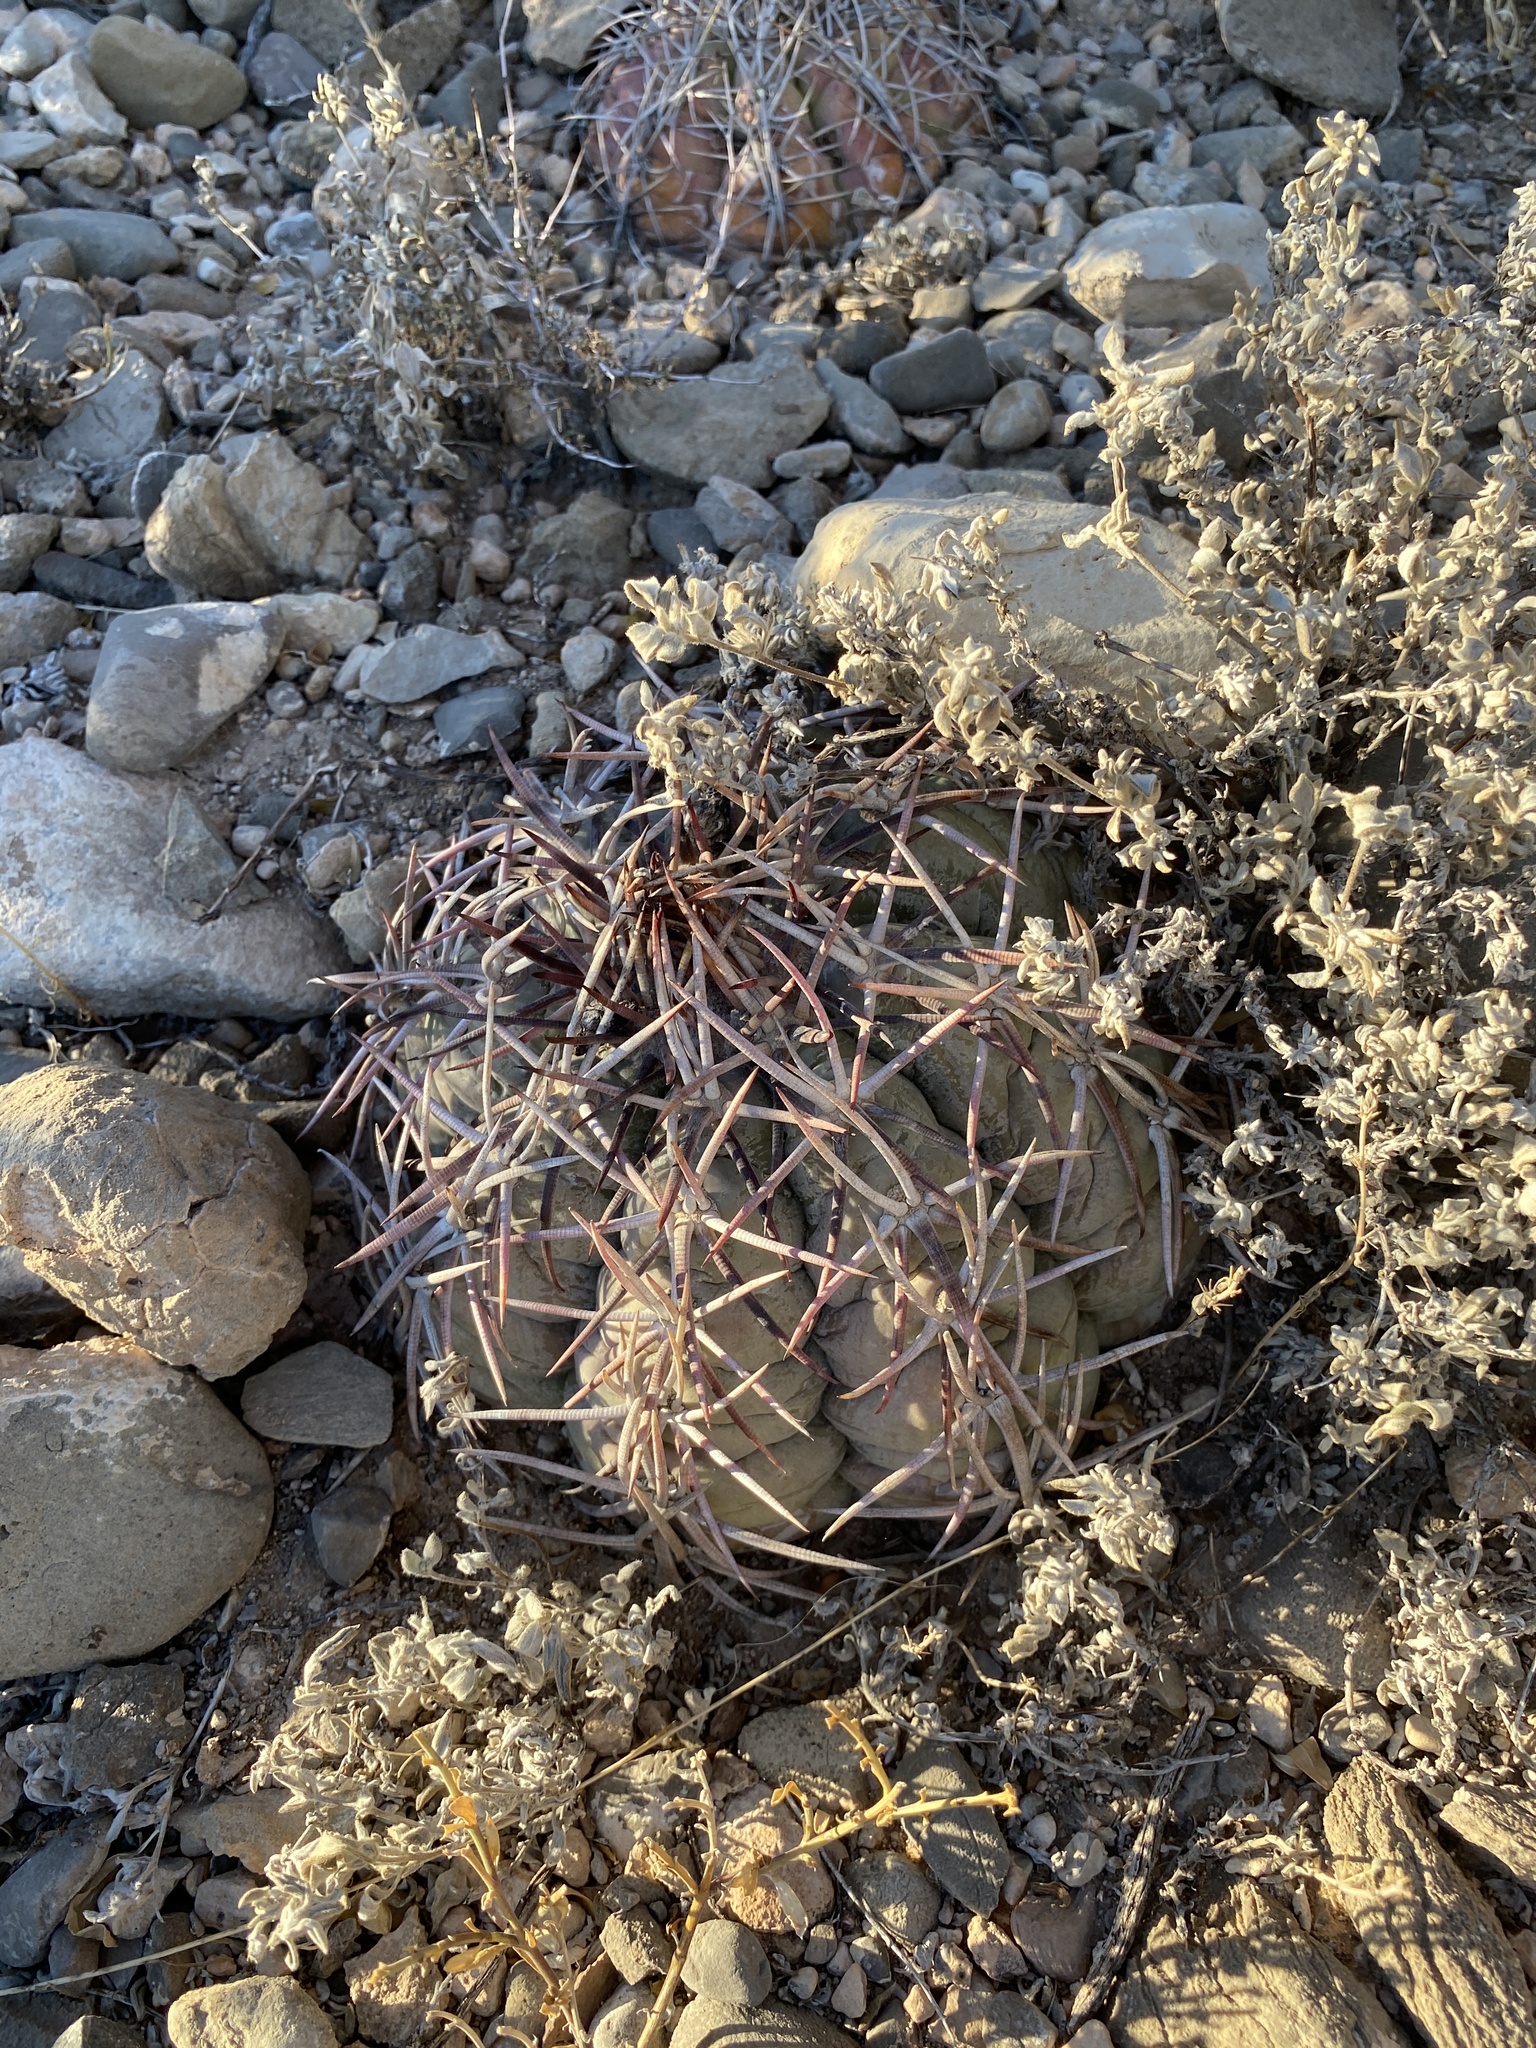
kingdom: Plantae
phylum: Tracheophyta
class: Magnoliopsida
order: Caryophyllales
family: Cactaceae
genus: Echinocactus
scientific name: Echinocactus horizonthalonius
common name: Devilshead
